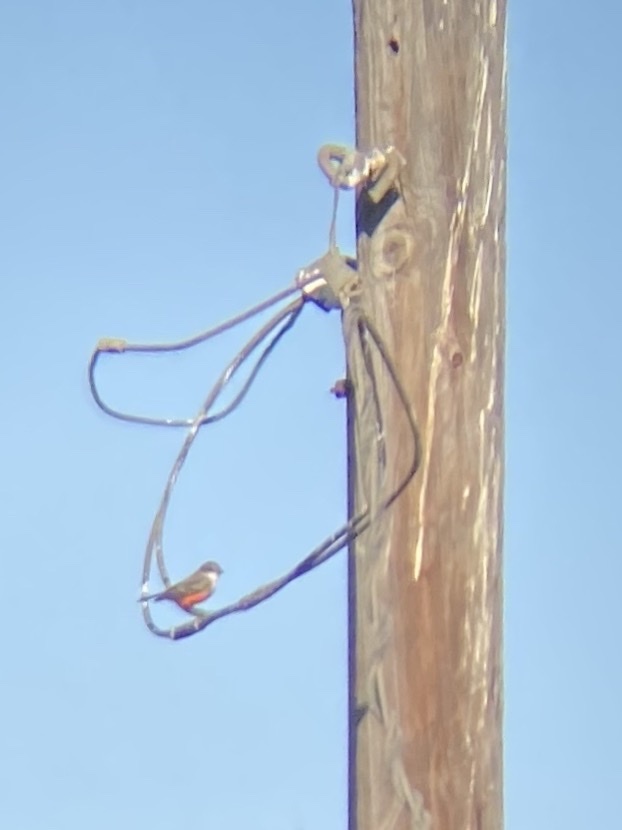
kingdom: Animalia
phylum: Chordata
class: Aves
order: Passeriformes
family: Tyrannidae
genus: Pyrocephalus
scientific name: Pyrocephalus rubinus
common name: Vermilion flycatcher
